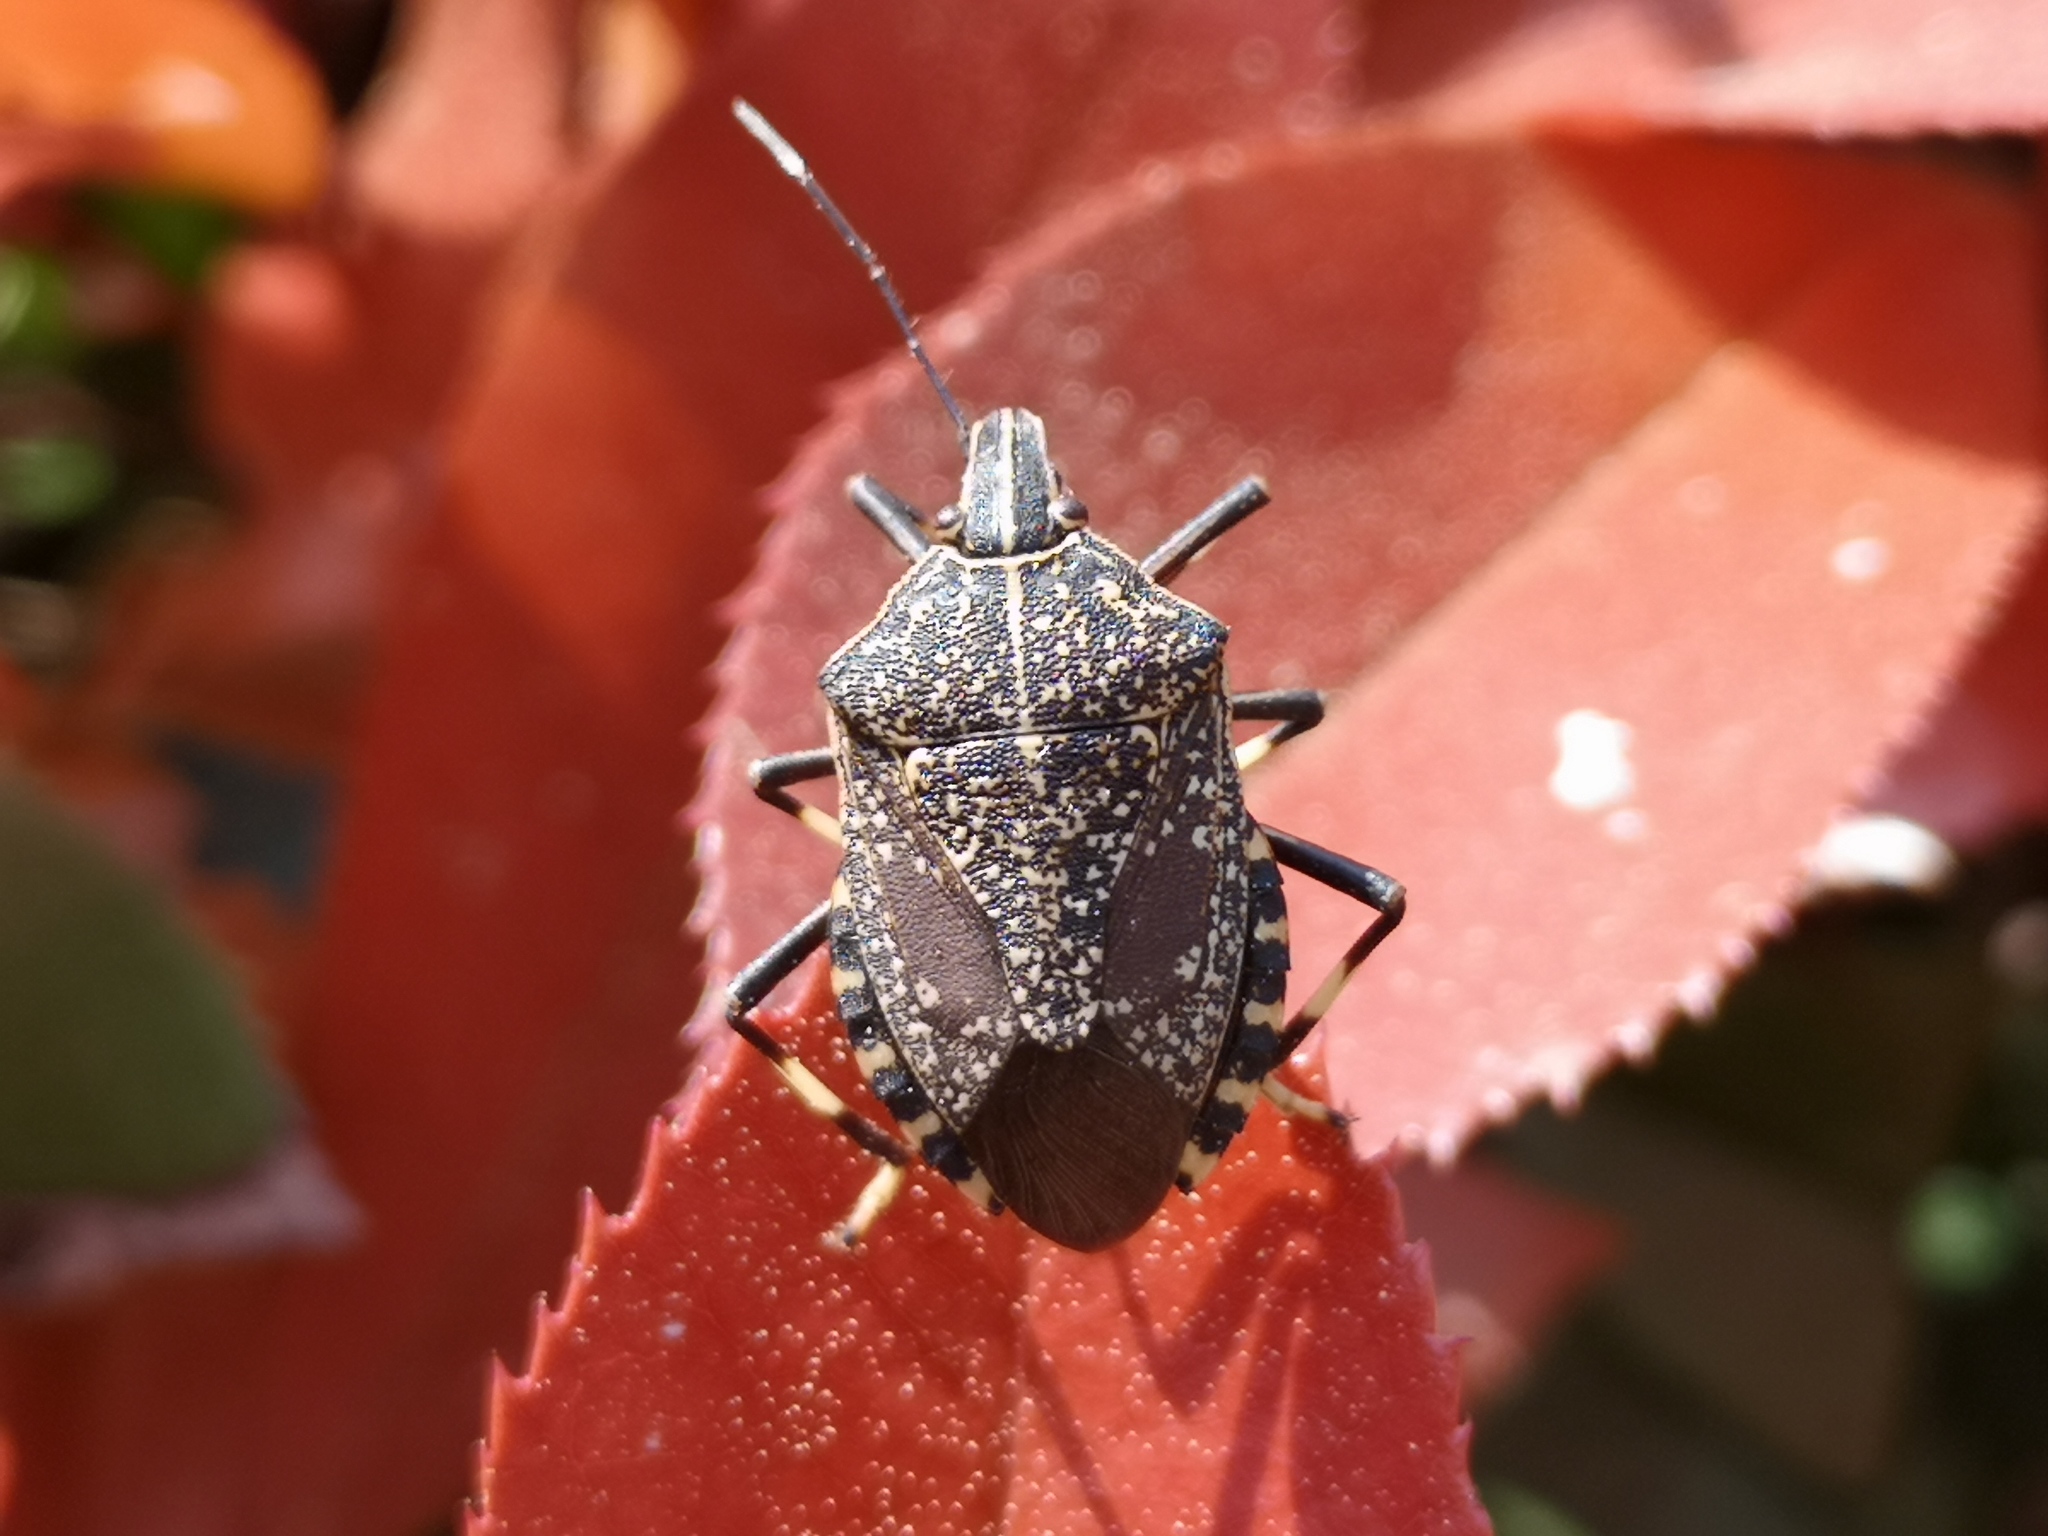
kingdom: Animalia
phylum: Arthropoda
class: Insecta
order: Hemiptera
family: Pentatomidae
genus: Erthesina
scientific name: Erthesina fullo
